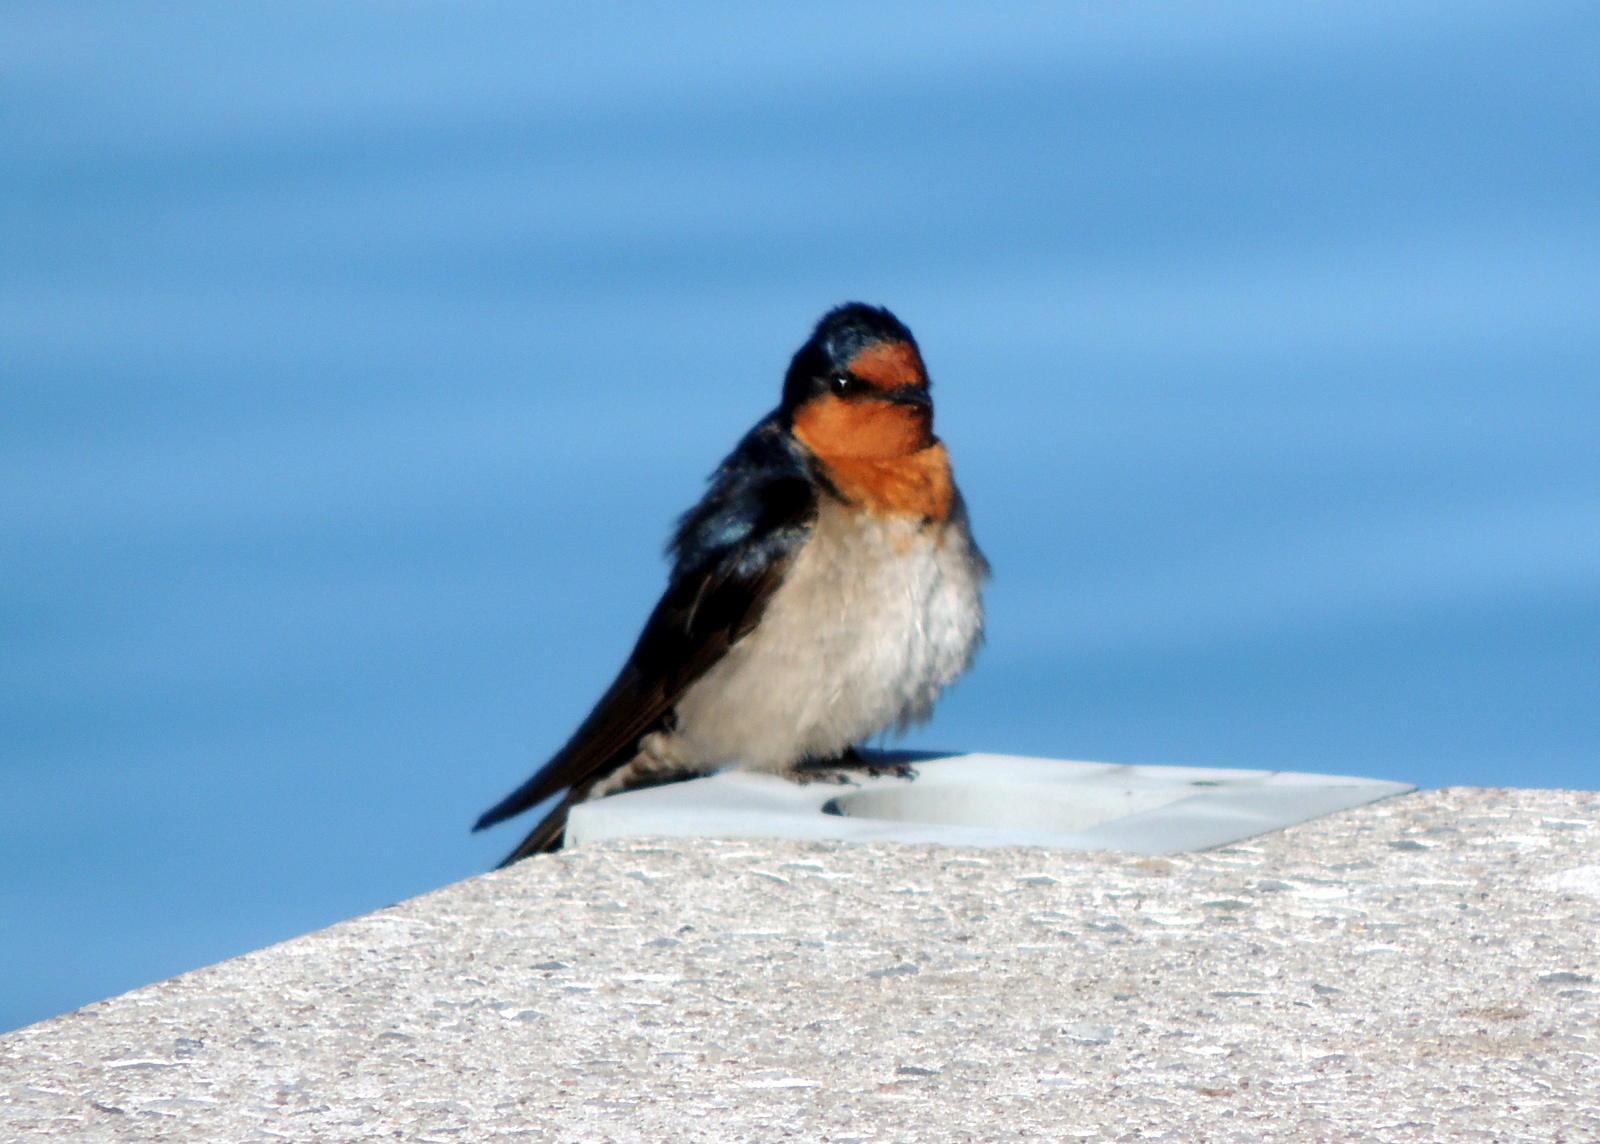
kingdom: Animalia
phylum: Chordata
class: Aves
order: Passeriformes
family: Hirundinidae
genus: Hirundo
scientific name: Hirundo neoxena
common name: Welcome swallow
